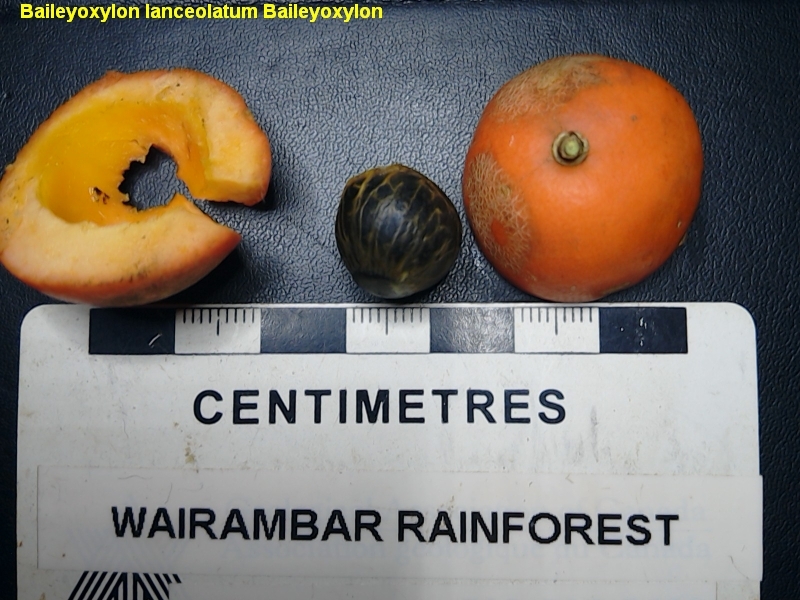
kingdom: Plantae
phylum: Tracheophyta
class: Magnoliopsida
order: Malpighiales
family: Achariaceae
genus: Baileyoxylon
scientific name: Baileyoxylon lanceolatum
